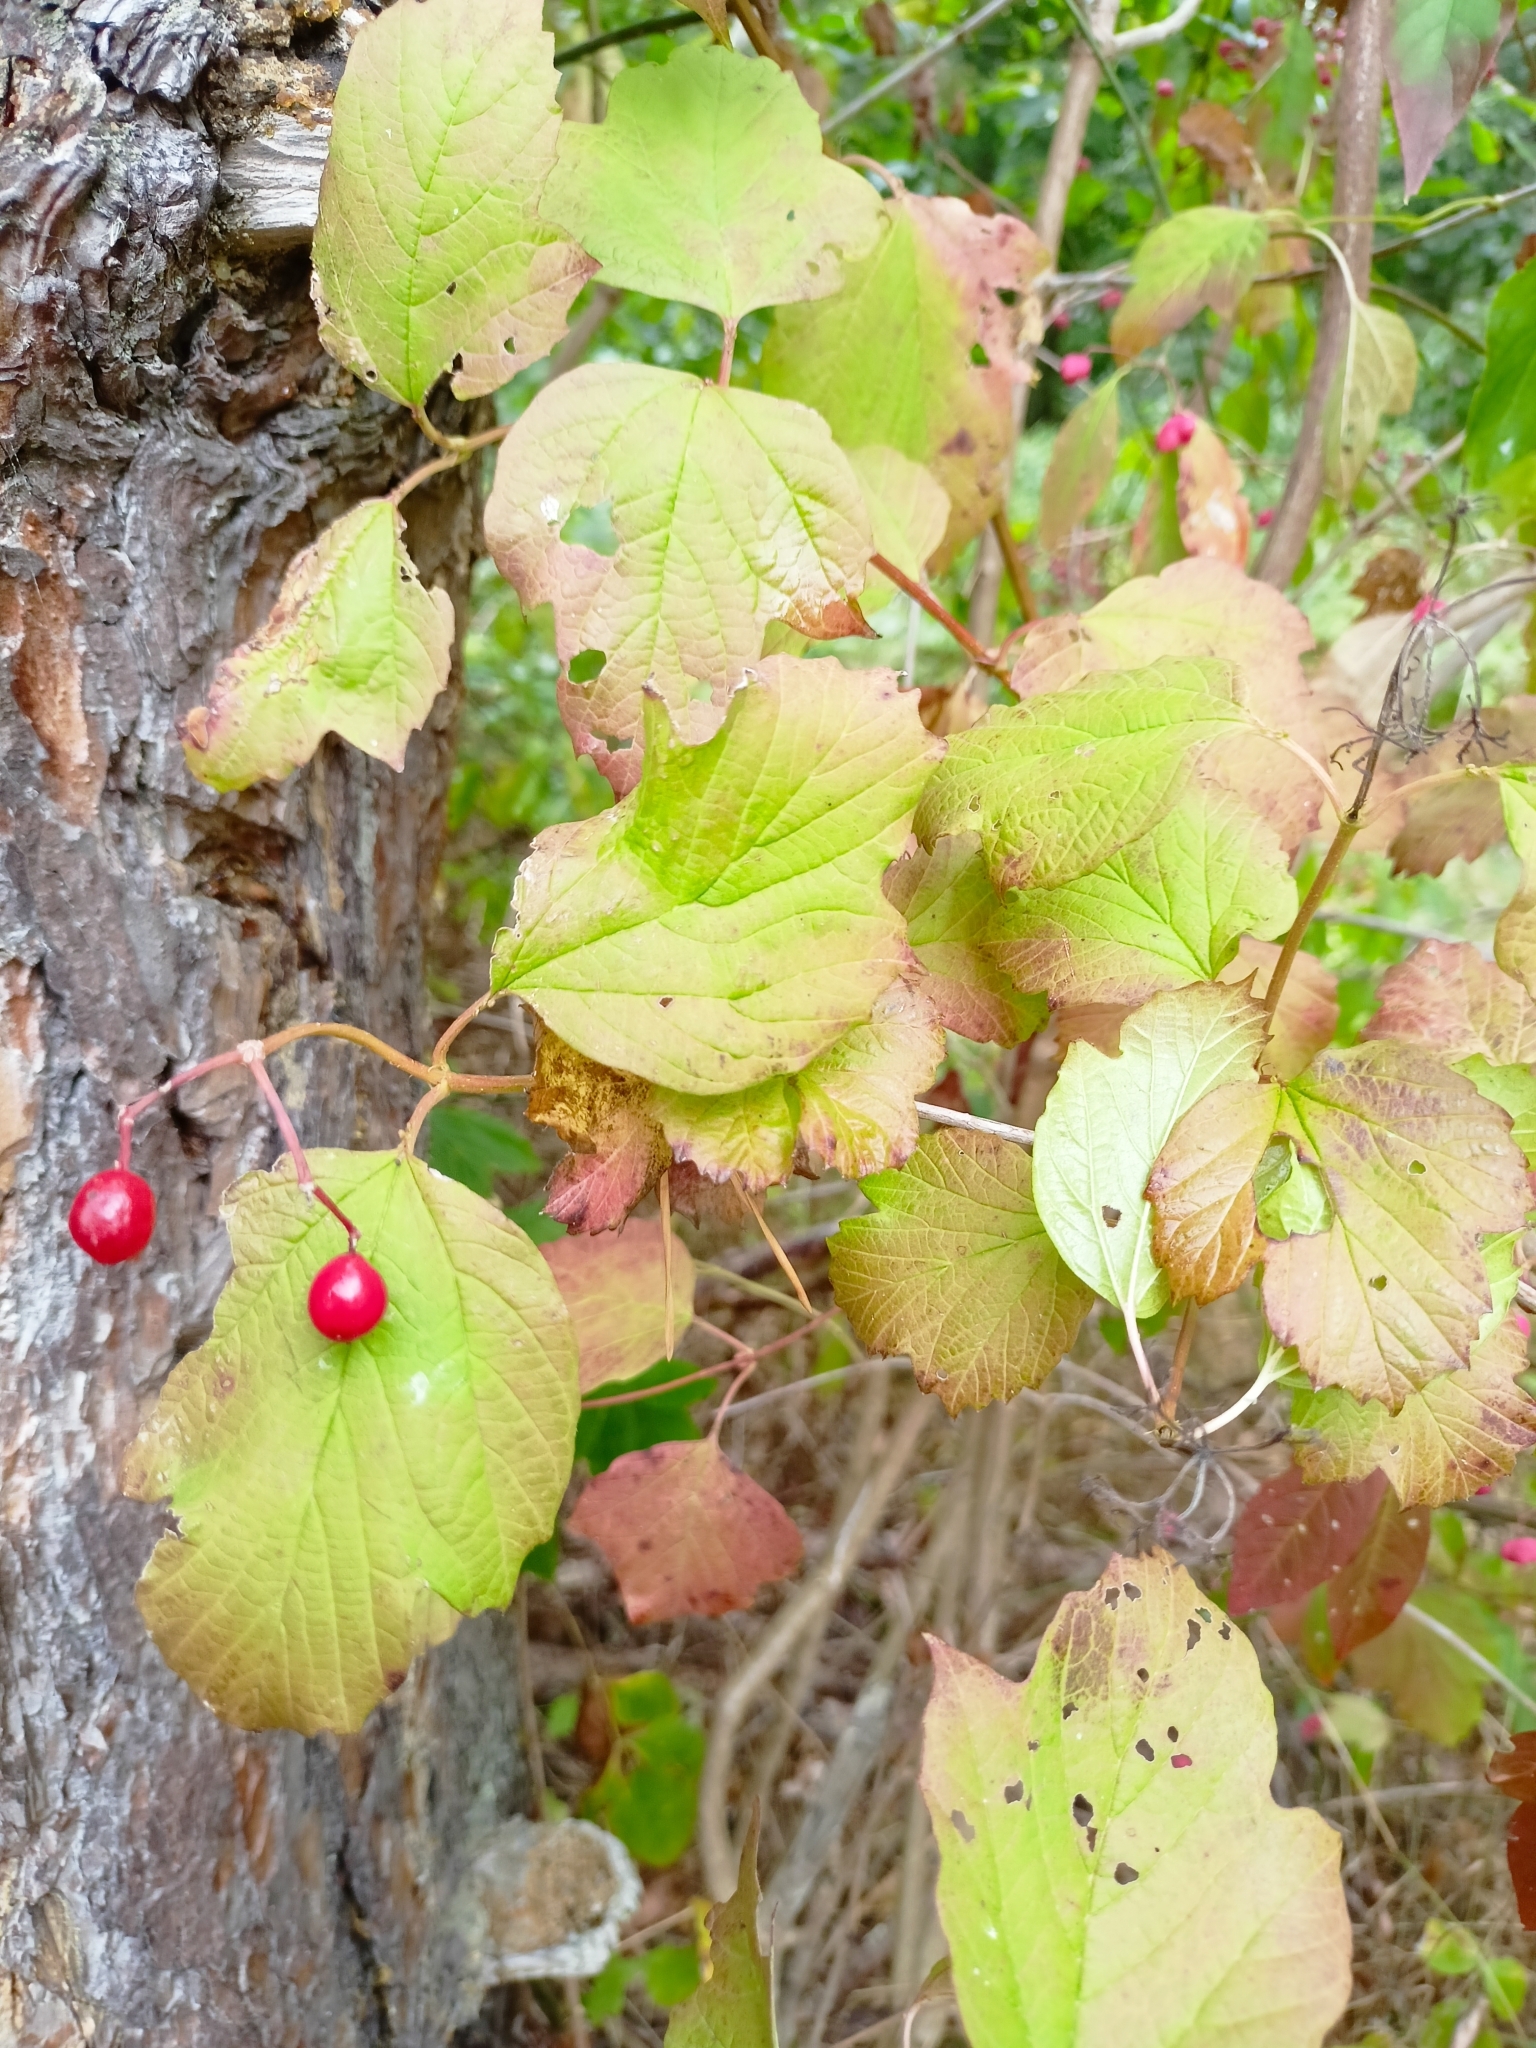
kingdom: Plantae
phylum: Tracheophyta
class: Magnoliopsida
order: Dipsacales
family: Viburnaceae
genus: Viburnum
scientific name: Viburnum opulus
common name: Guelder-rose
